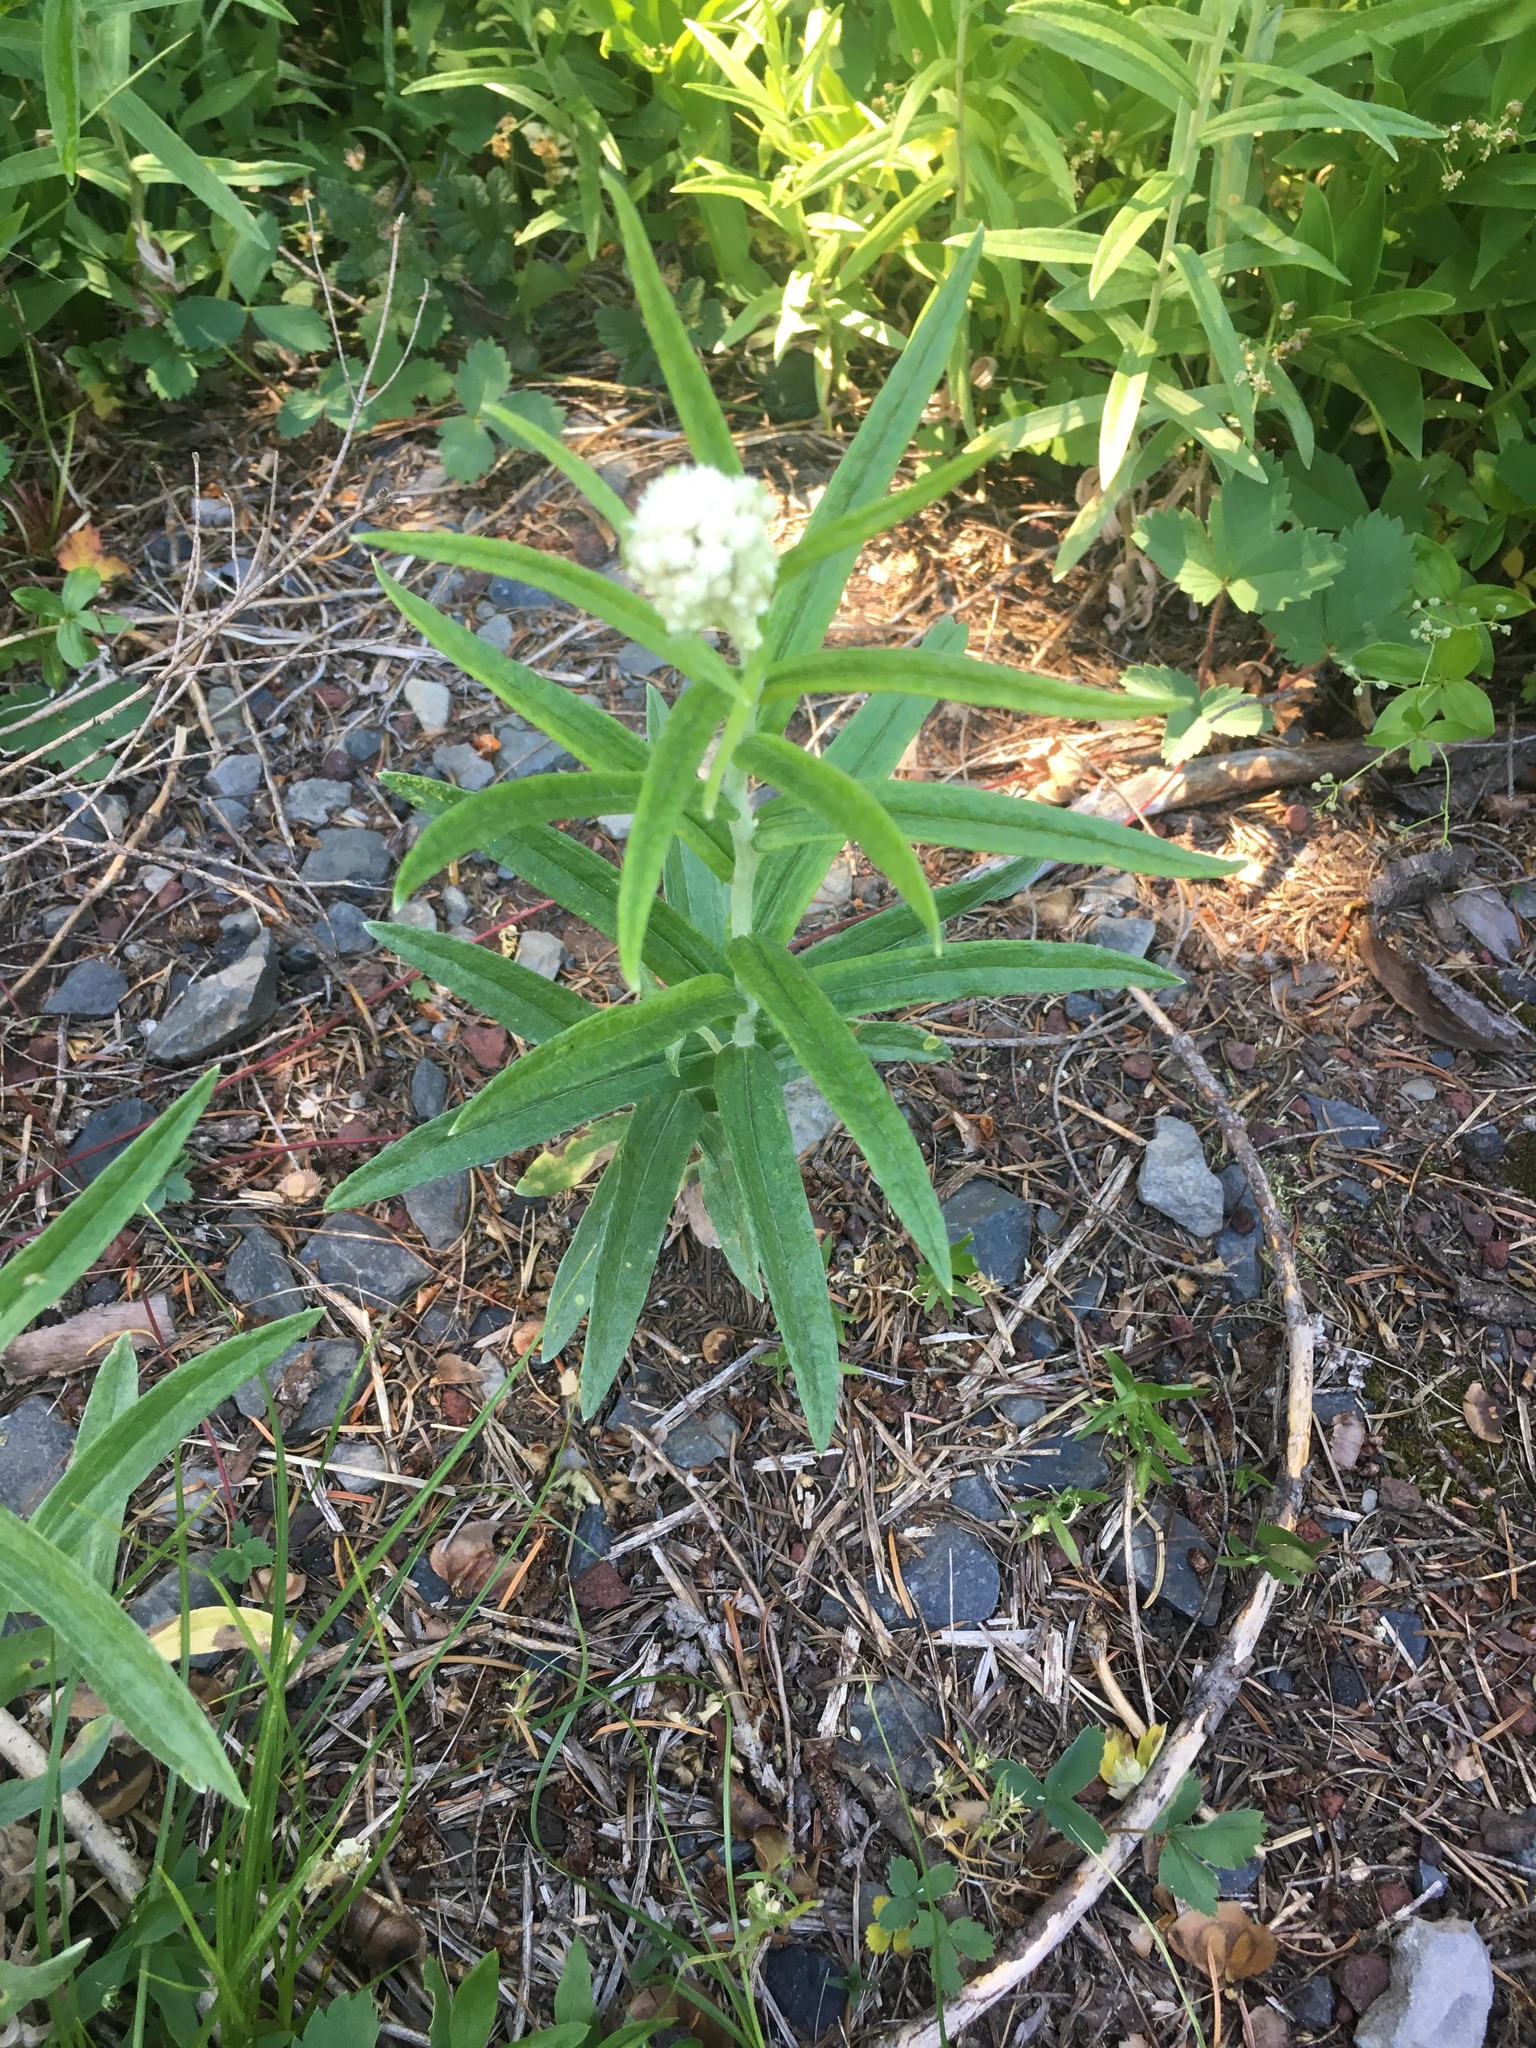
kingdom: Plantae
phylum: Tracheophyta
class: Magnoliopsida
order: Asterales
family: Asteraceae
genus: Anaphalis
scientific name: Anaphalis margaritacea
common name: Pearly everlasting
